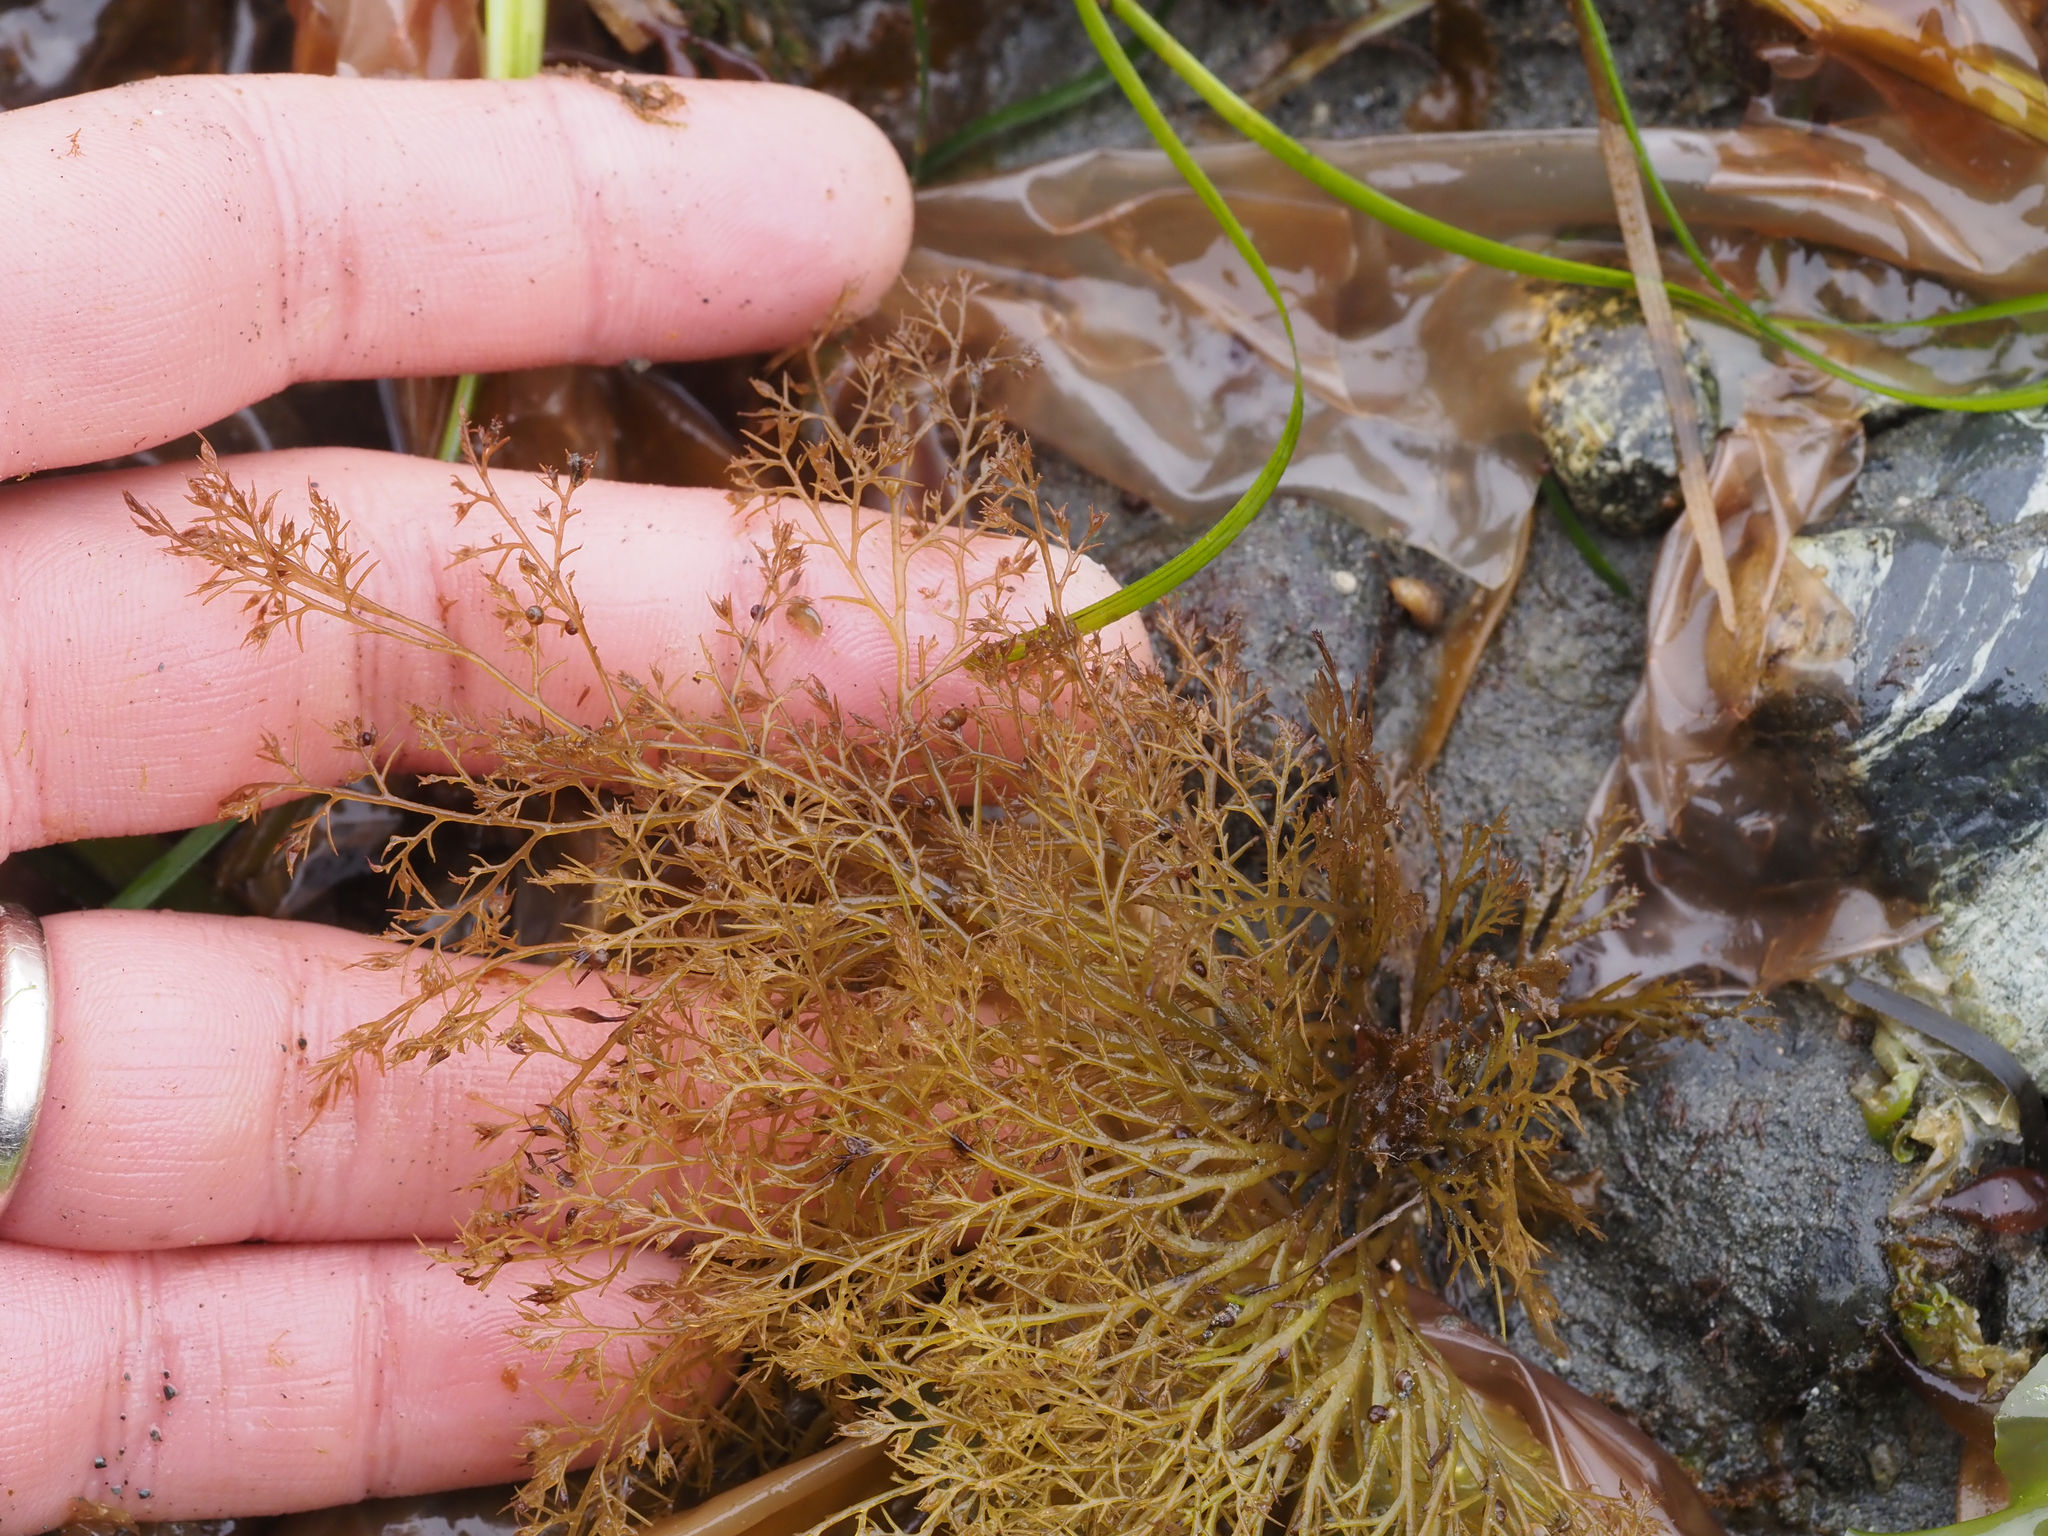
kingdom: Plantae
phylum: Rhodophyta
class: Florideophyceae
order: Ceramiales
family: Rhodomelaceae
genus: Odonthalia
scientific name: Odonthalia floccosa
